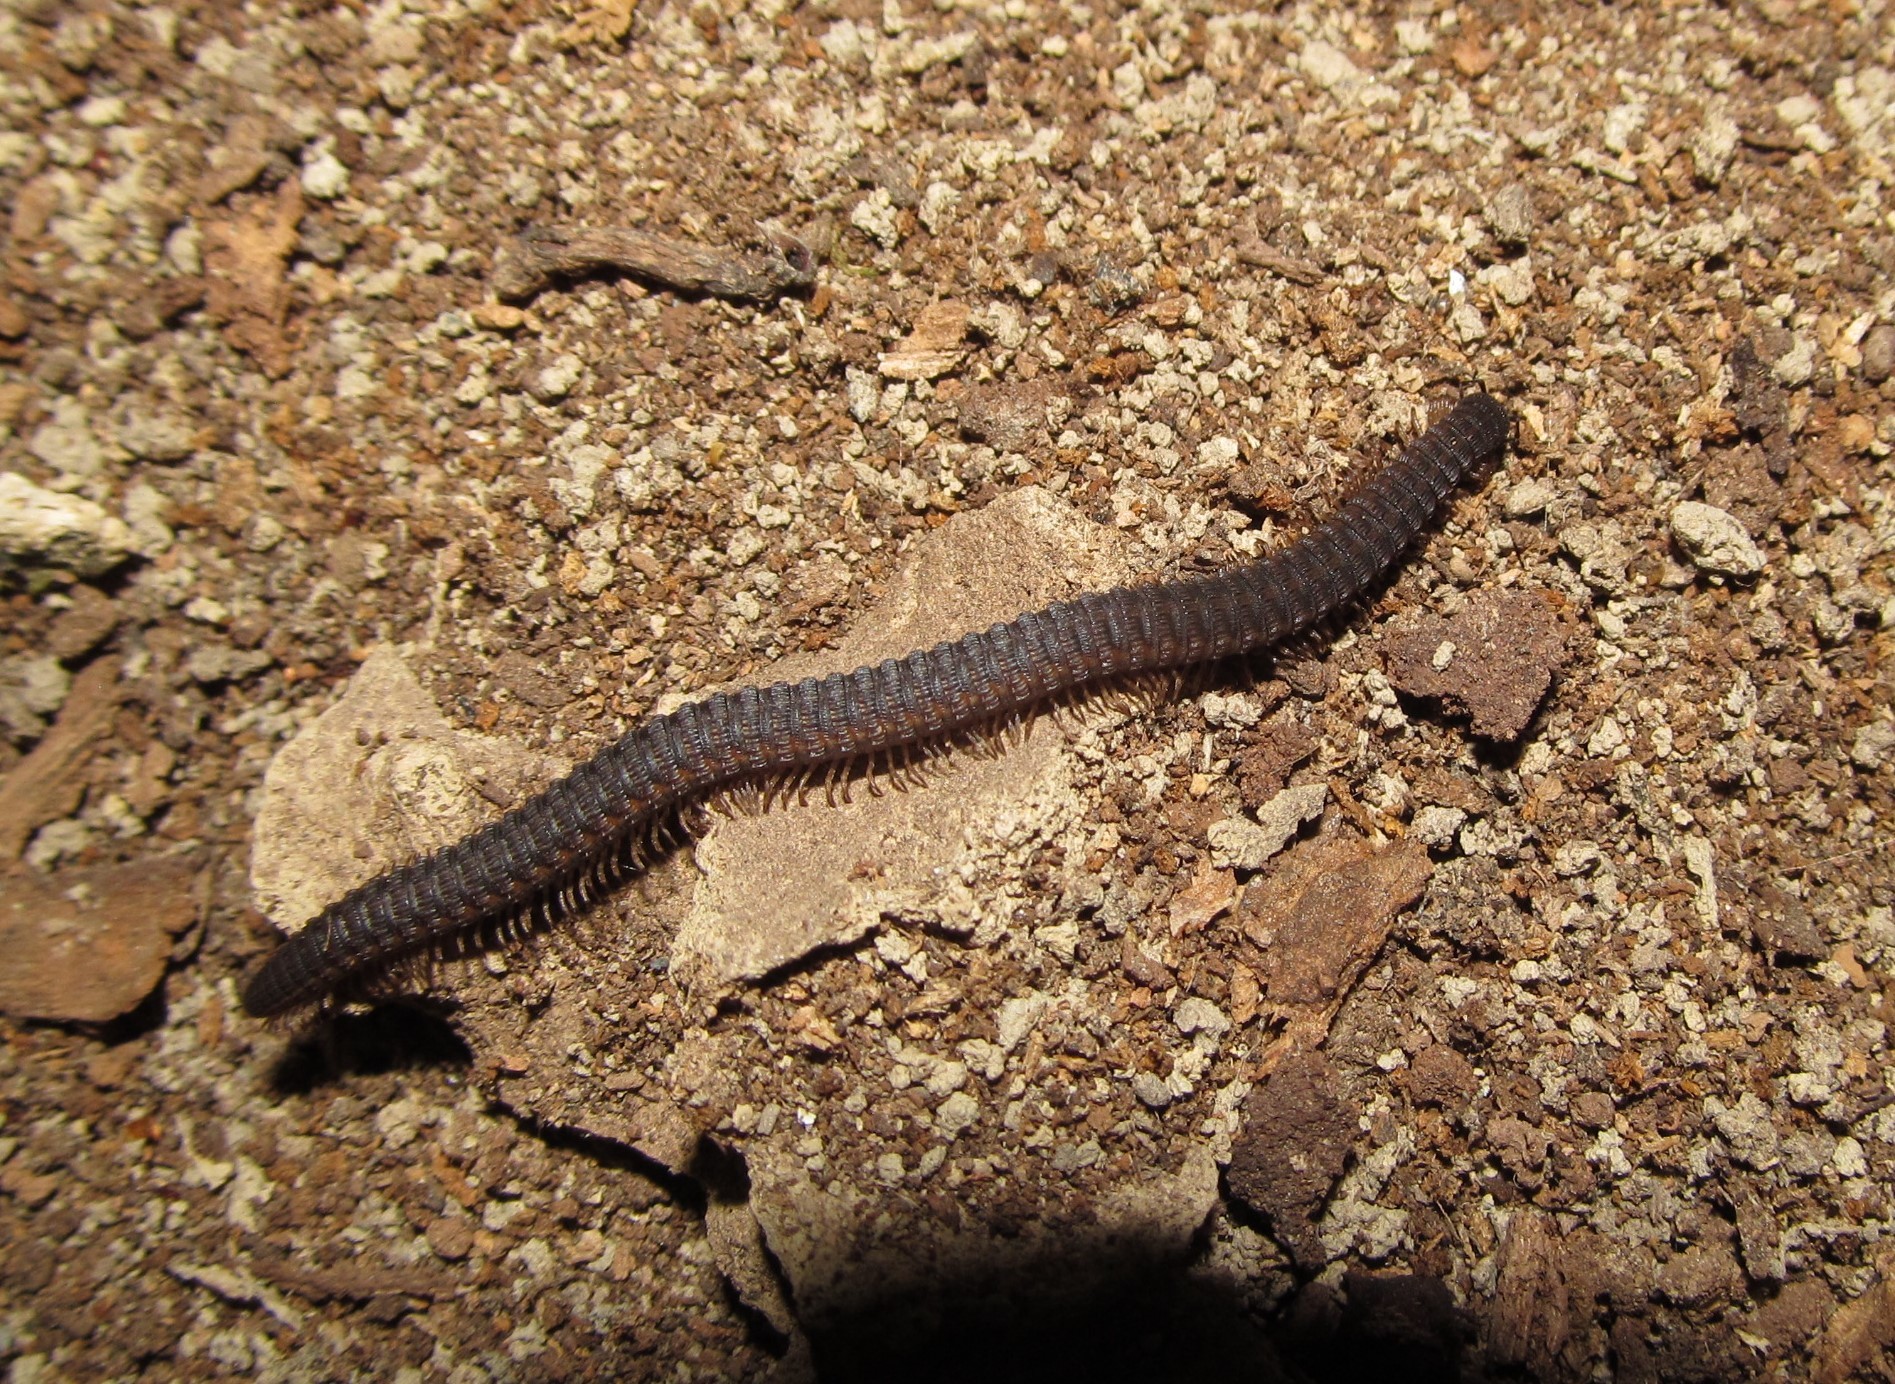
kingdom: Animalia
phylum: Arthropoda
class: Diplopoda
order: Callipodida
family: Abacionidae
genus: Abacion
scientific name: Abacion
